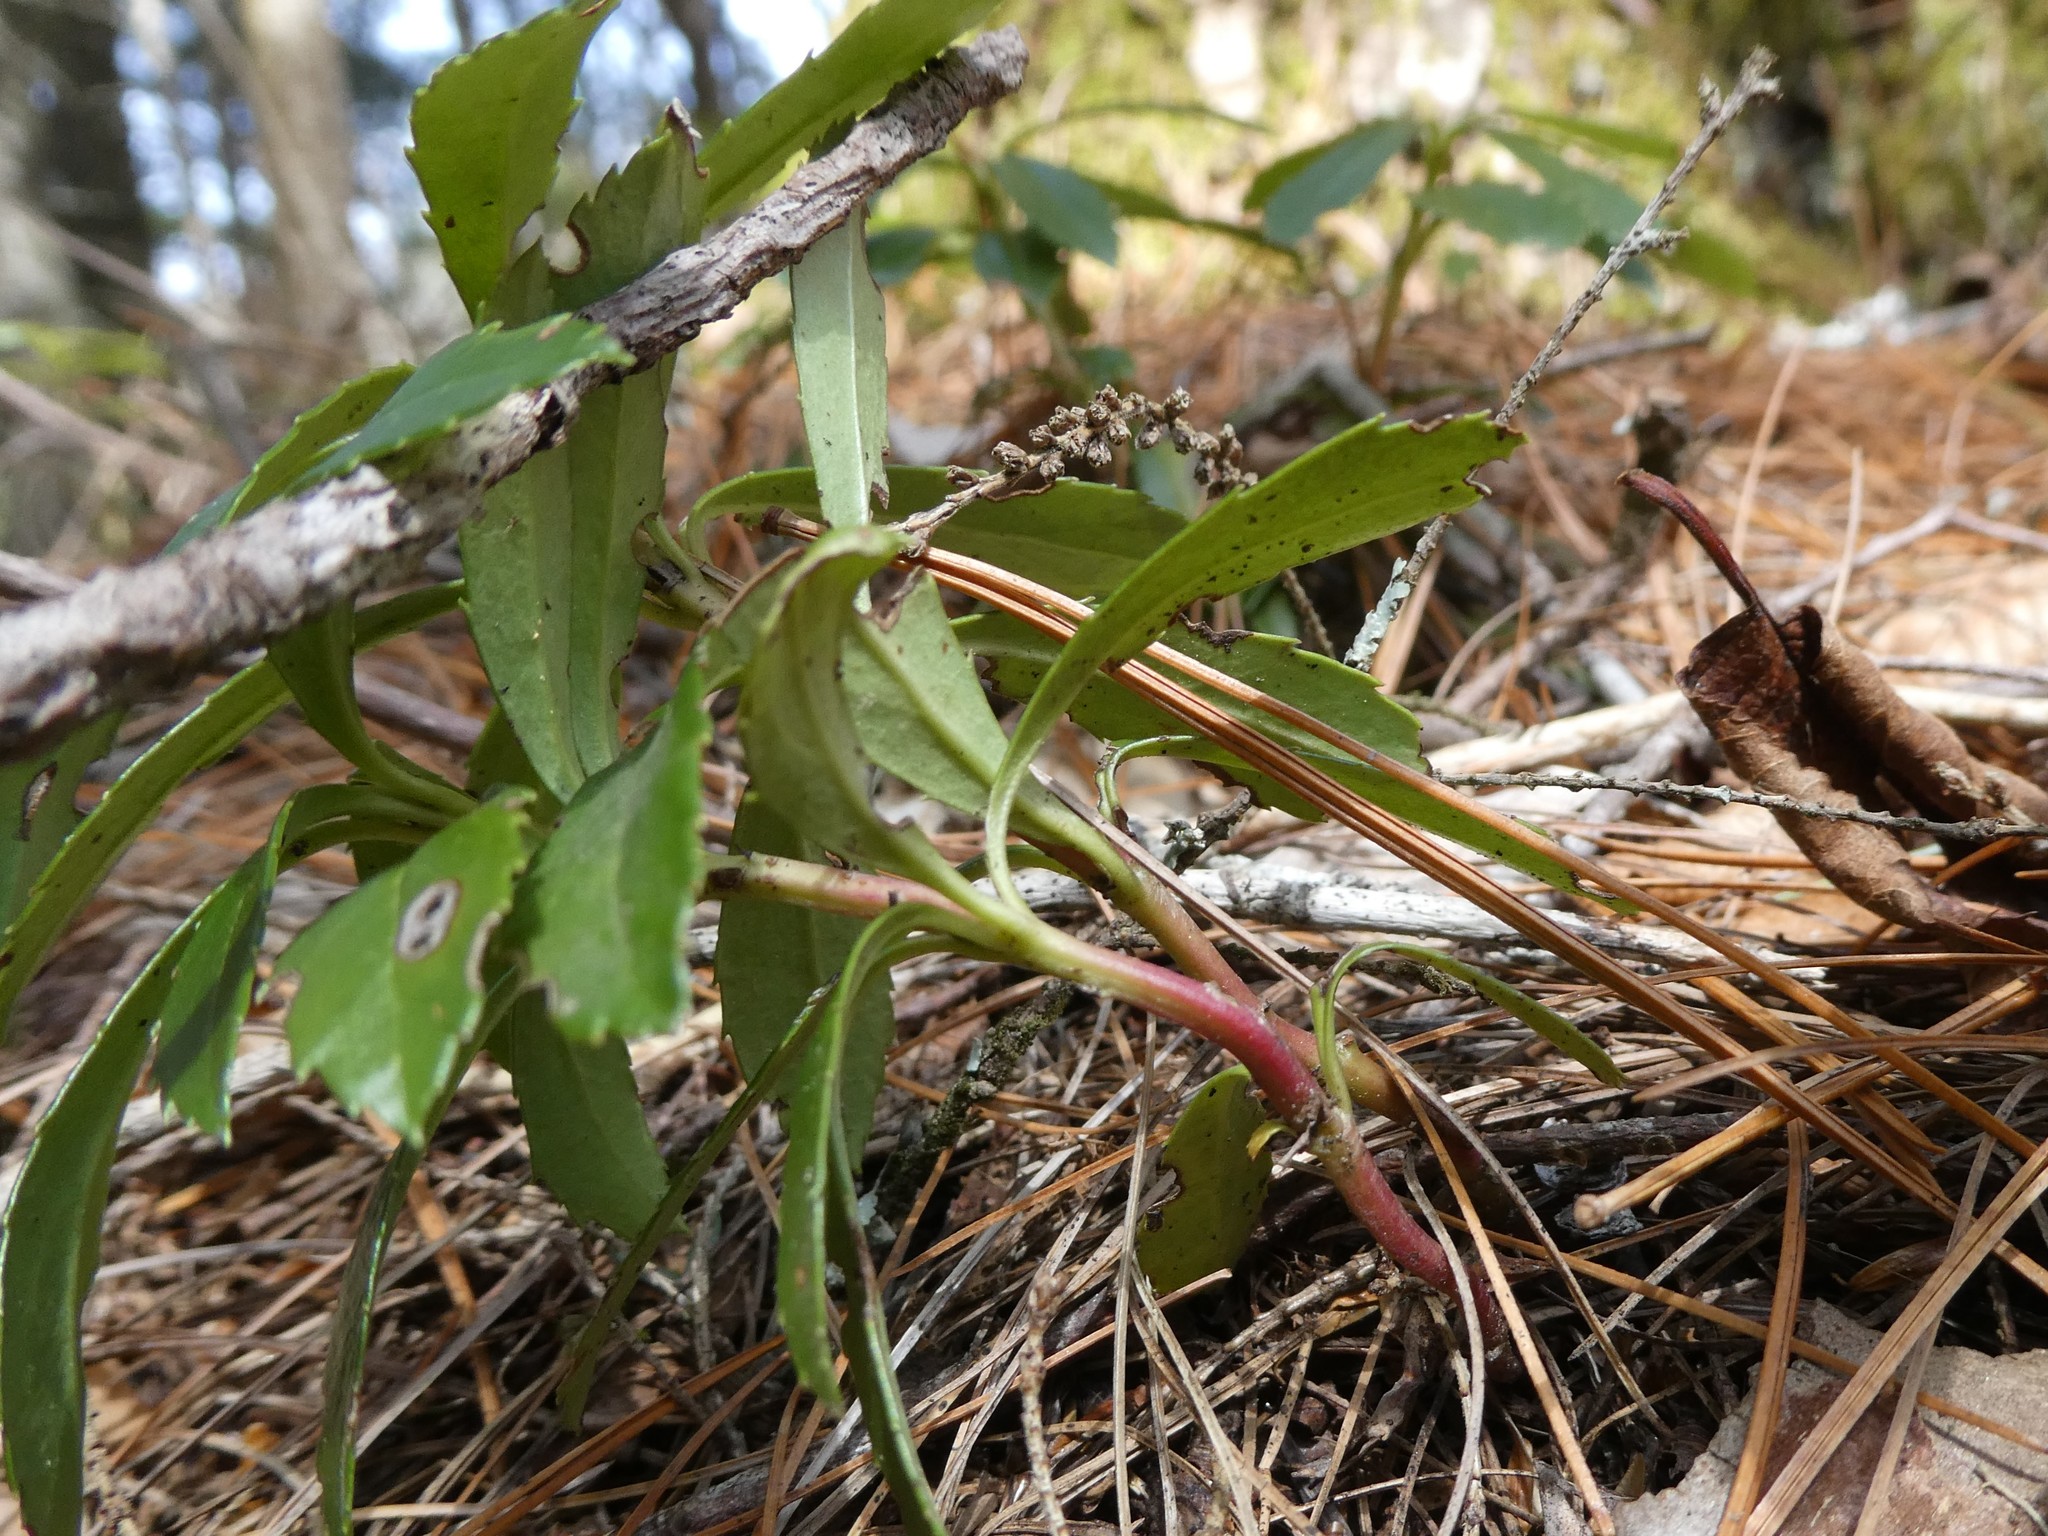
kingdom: Plantae
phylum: Tracheophyta
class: Magnoliopsida
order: Ericales
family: Ericaceae
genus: Chimaphila
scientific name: Chimaphila umbellata
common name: Pipsissewa
